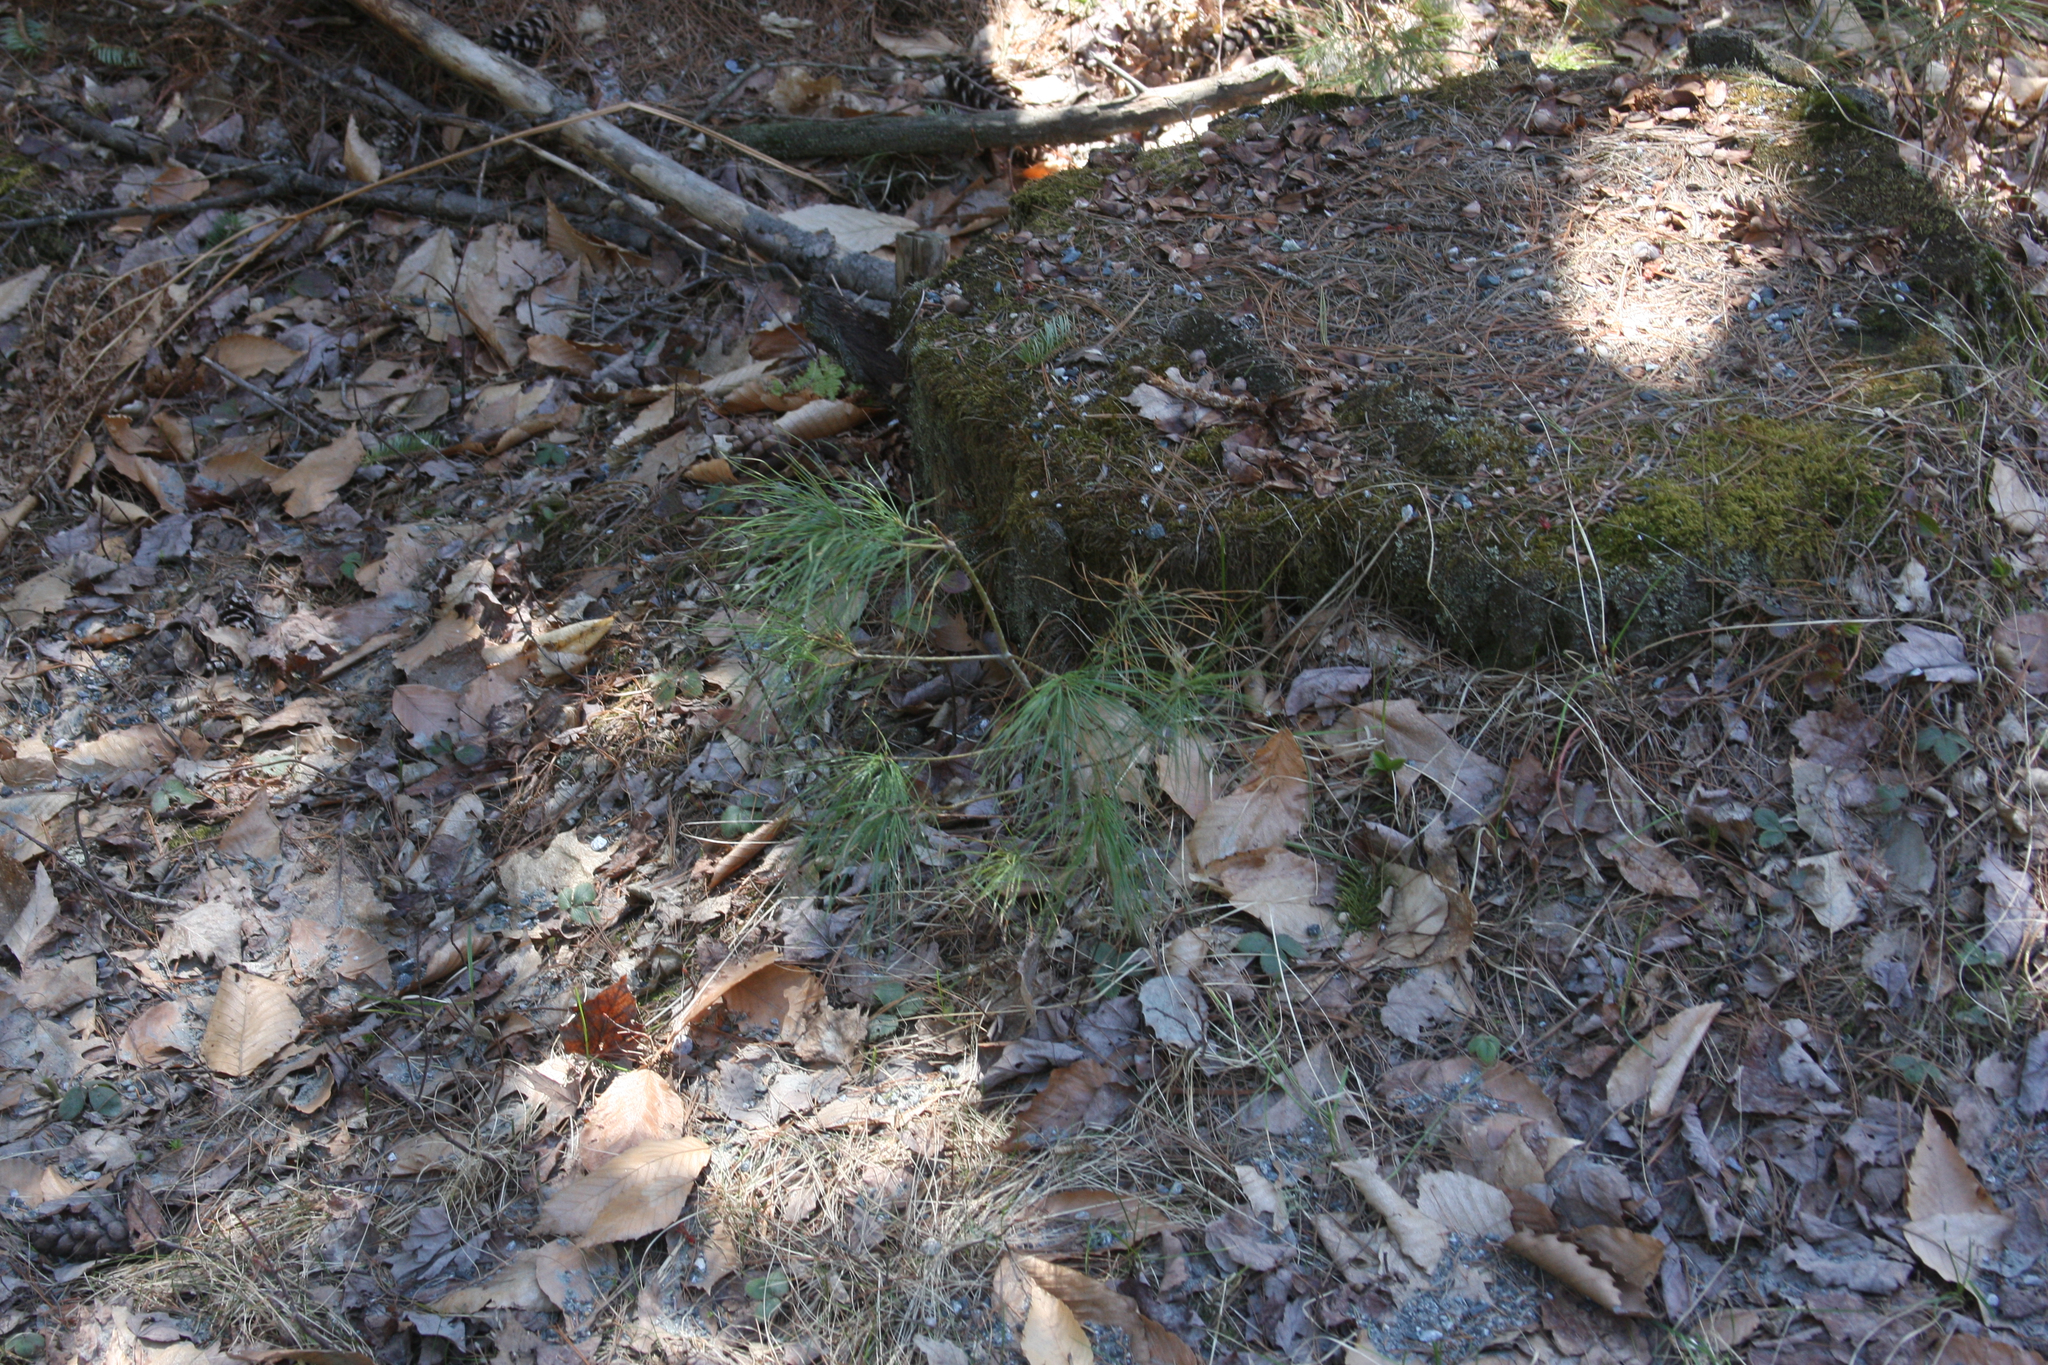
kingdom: Plantae
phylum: Tracheophyta
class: Pinopsida
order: Pinales
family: Pinaceae
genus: Pinus
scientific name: Pinus strobus
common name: Weymouth pine
